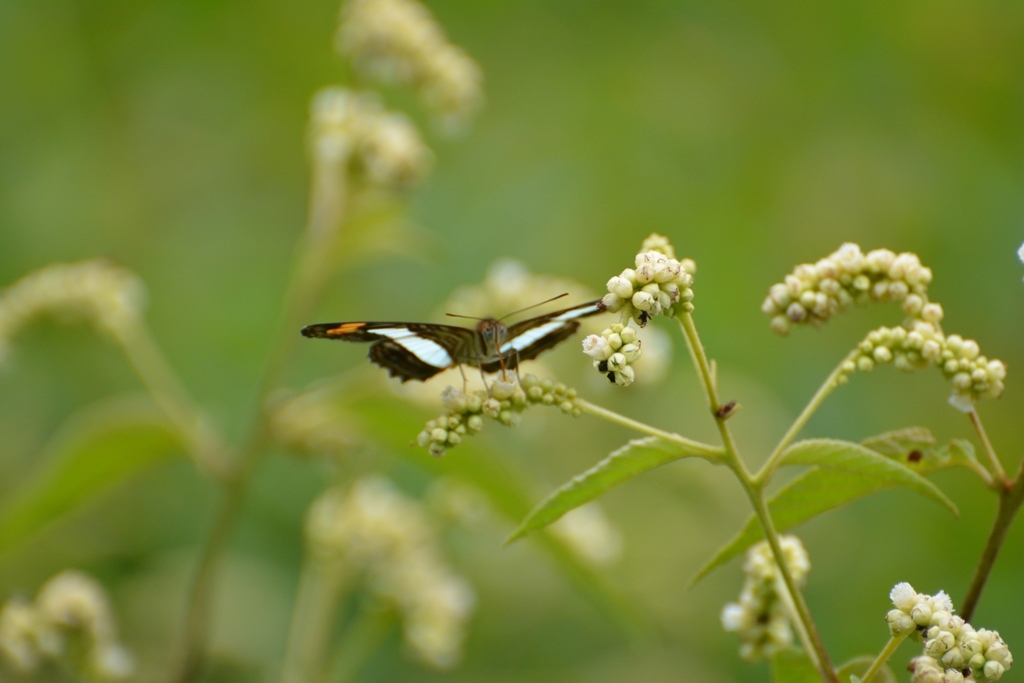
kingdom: Animalia
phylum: Arthropoda
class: Insecta
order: Lepidoptera
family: Nymphalidae
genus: Limenitis
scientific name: Limenitis iphiclus
